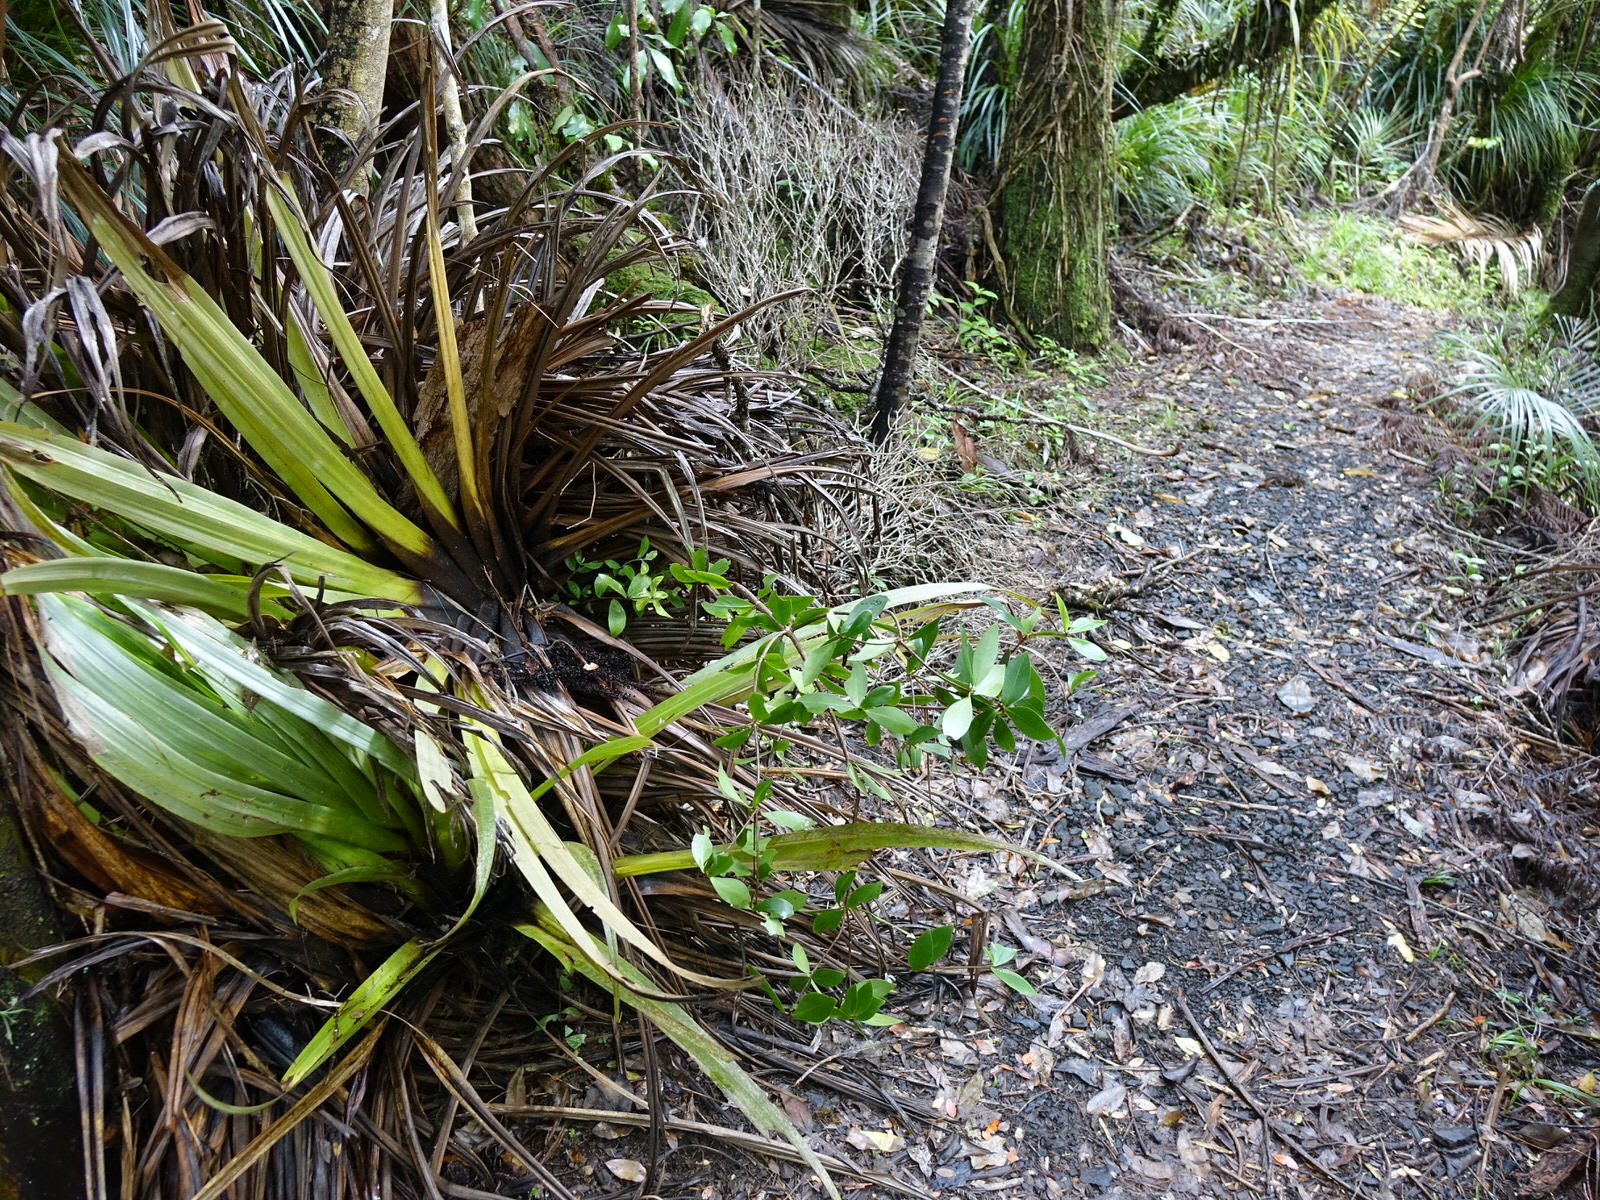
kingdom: Plantae
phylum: Tracheophyta
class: Magnoliopsida
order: Apiales
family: Pittosporaceae
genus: Pittosporum
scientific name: Pittosporum cornifolium
